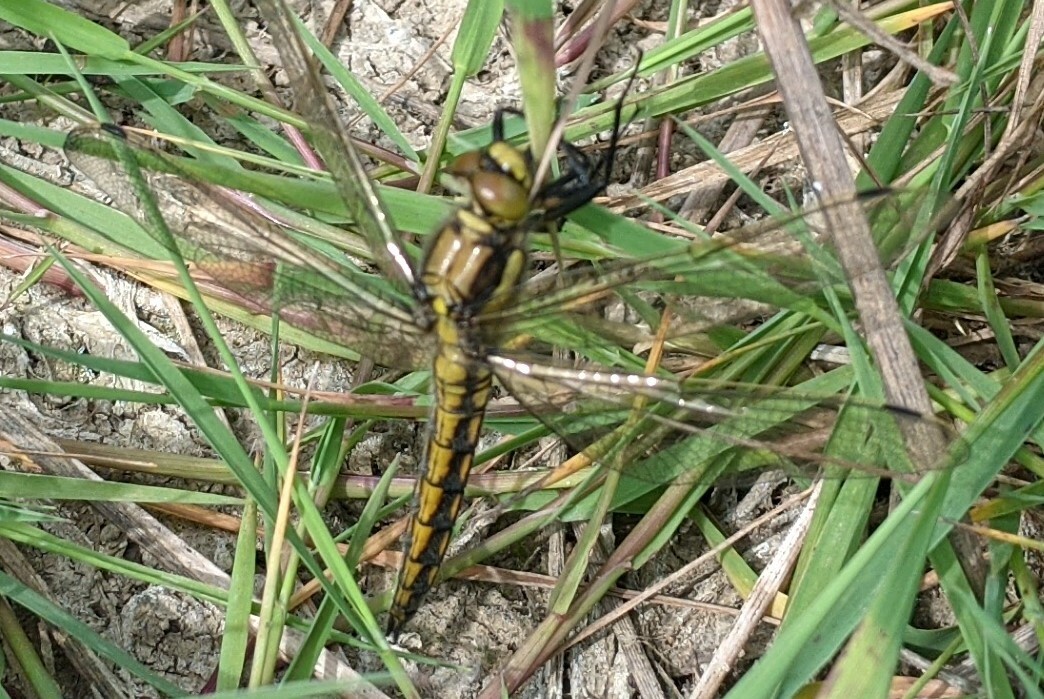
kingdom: Animalia
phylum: Arthropoda
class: Insecta
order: Odonata
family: Libellulidae
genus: Orthetrum
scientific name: Orthetrum cancellatum
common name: Black-tailed skimmer
